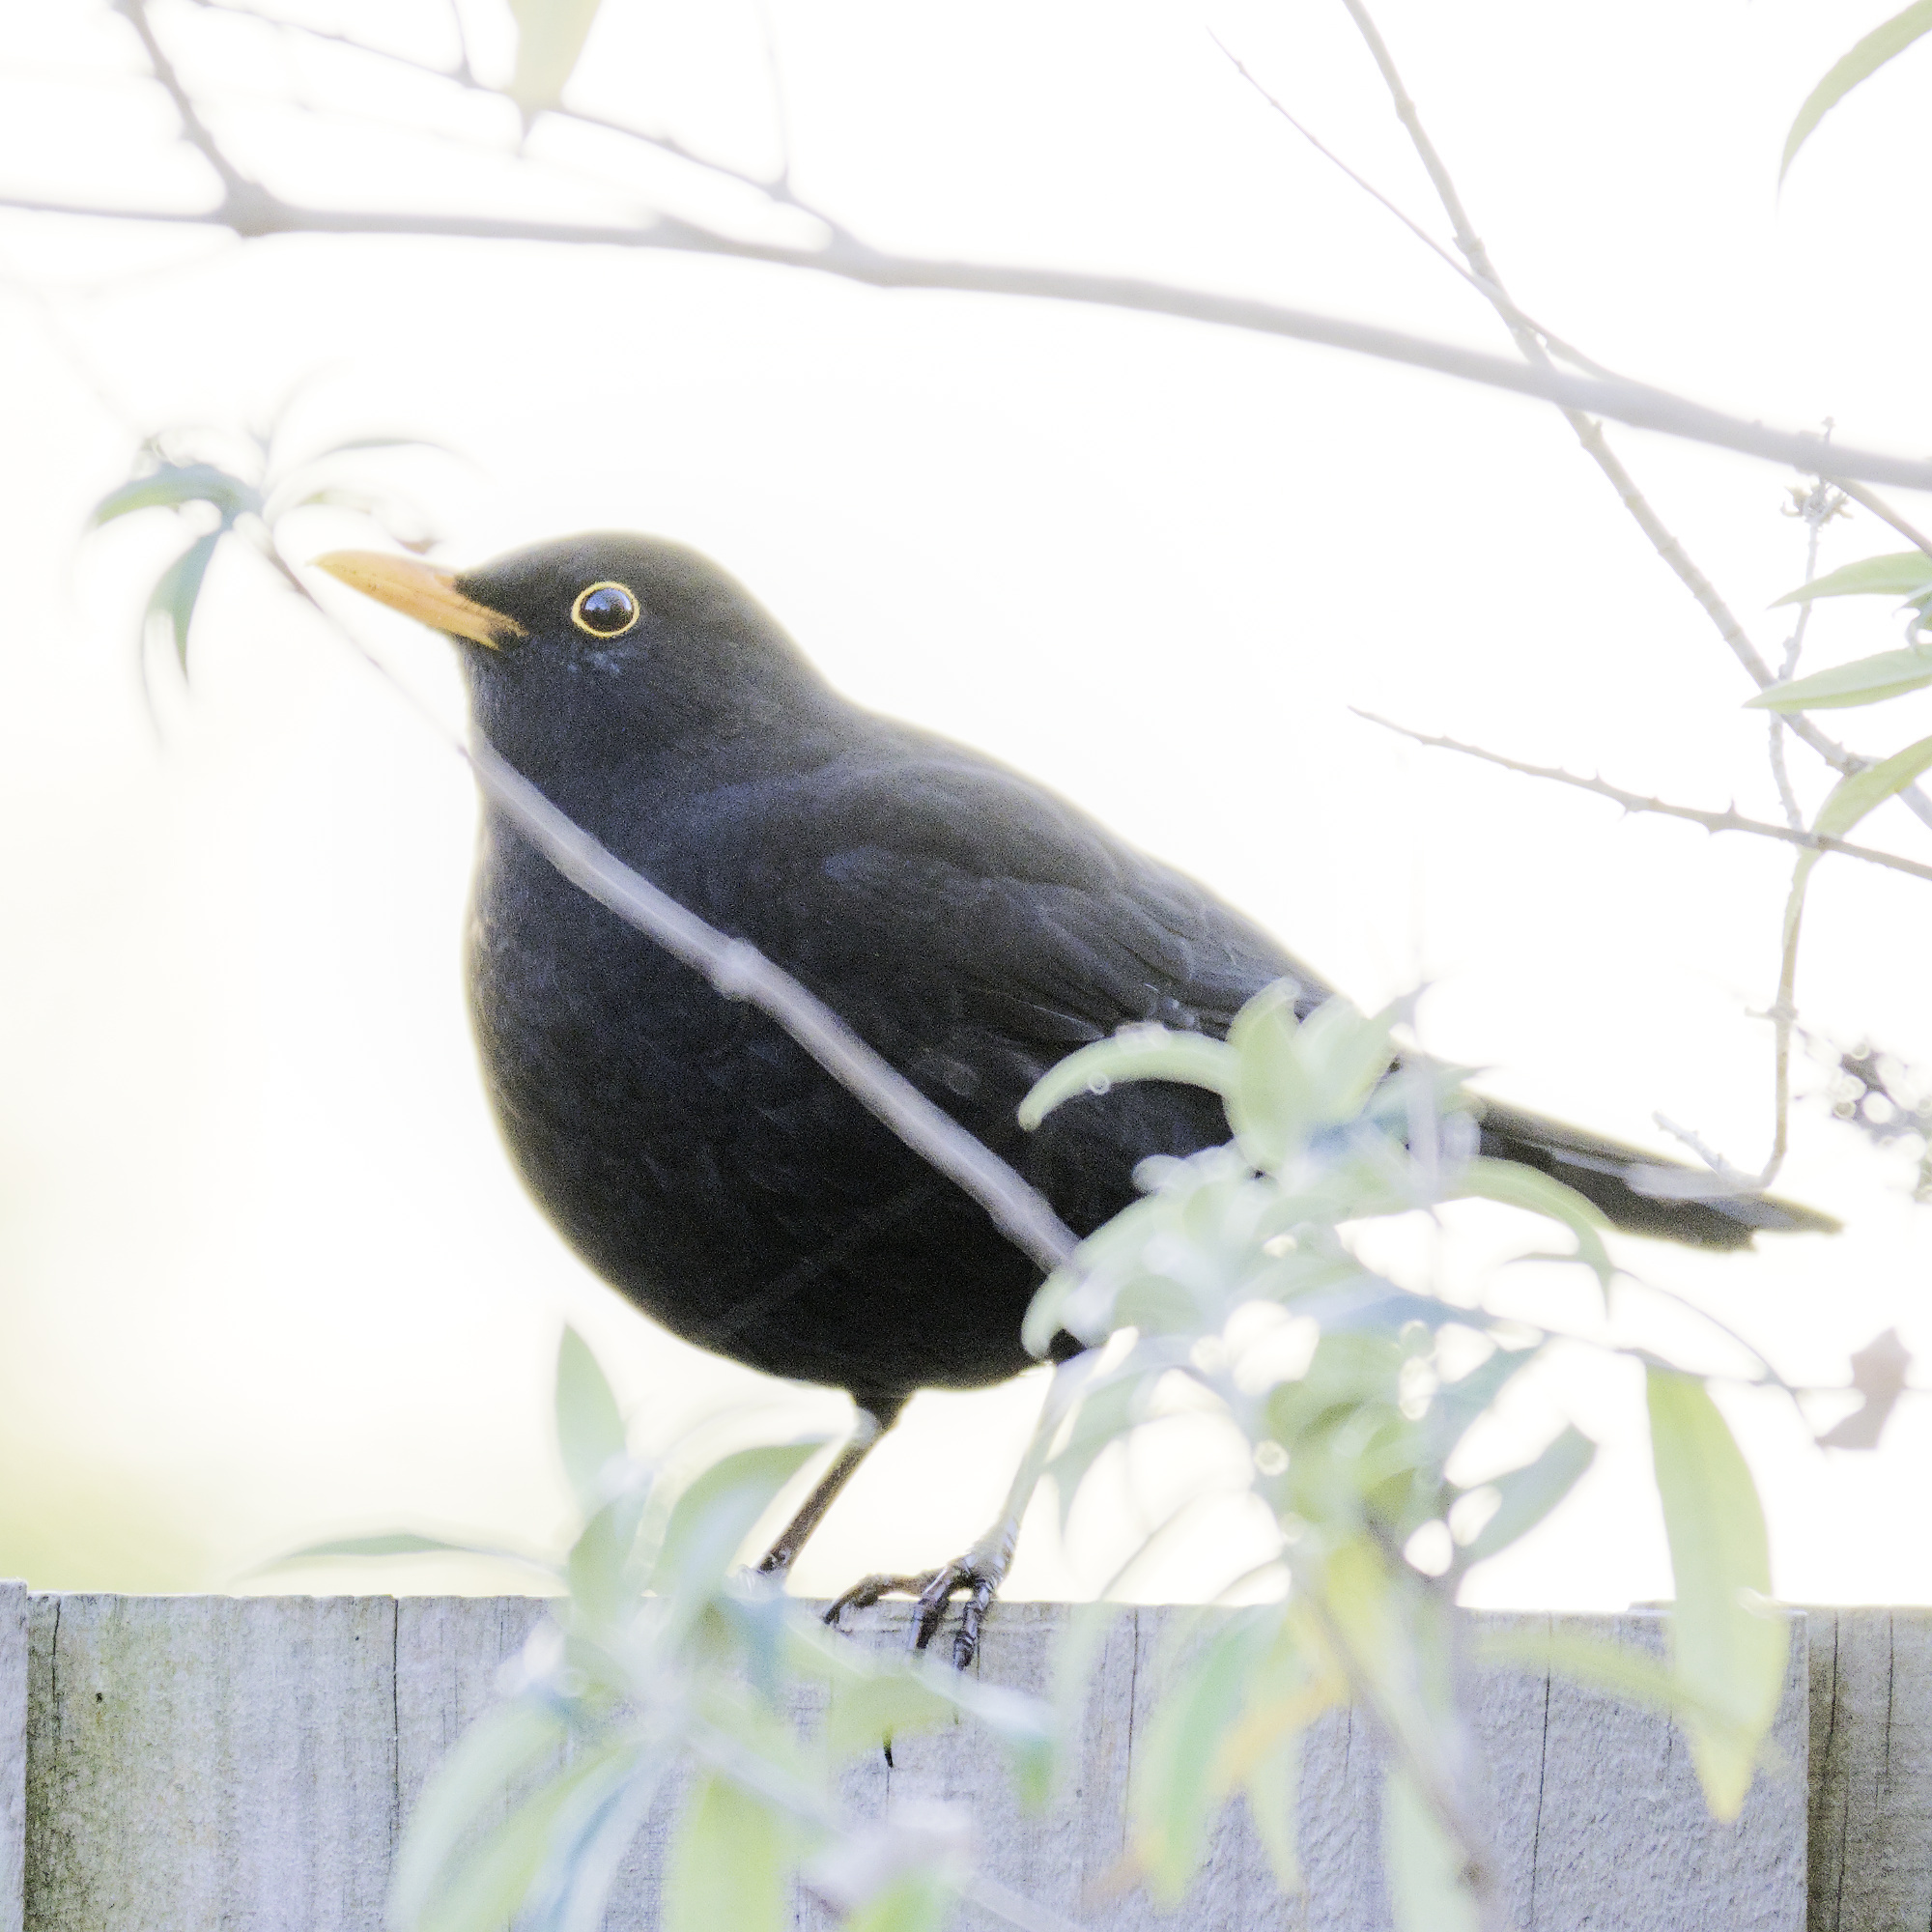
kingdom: Animalia
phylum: Chordata
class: Aves
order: Passeriformes
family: Turdidae
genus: Turdus
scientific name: Turdus merula
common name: Common blackbird
